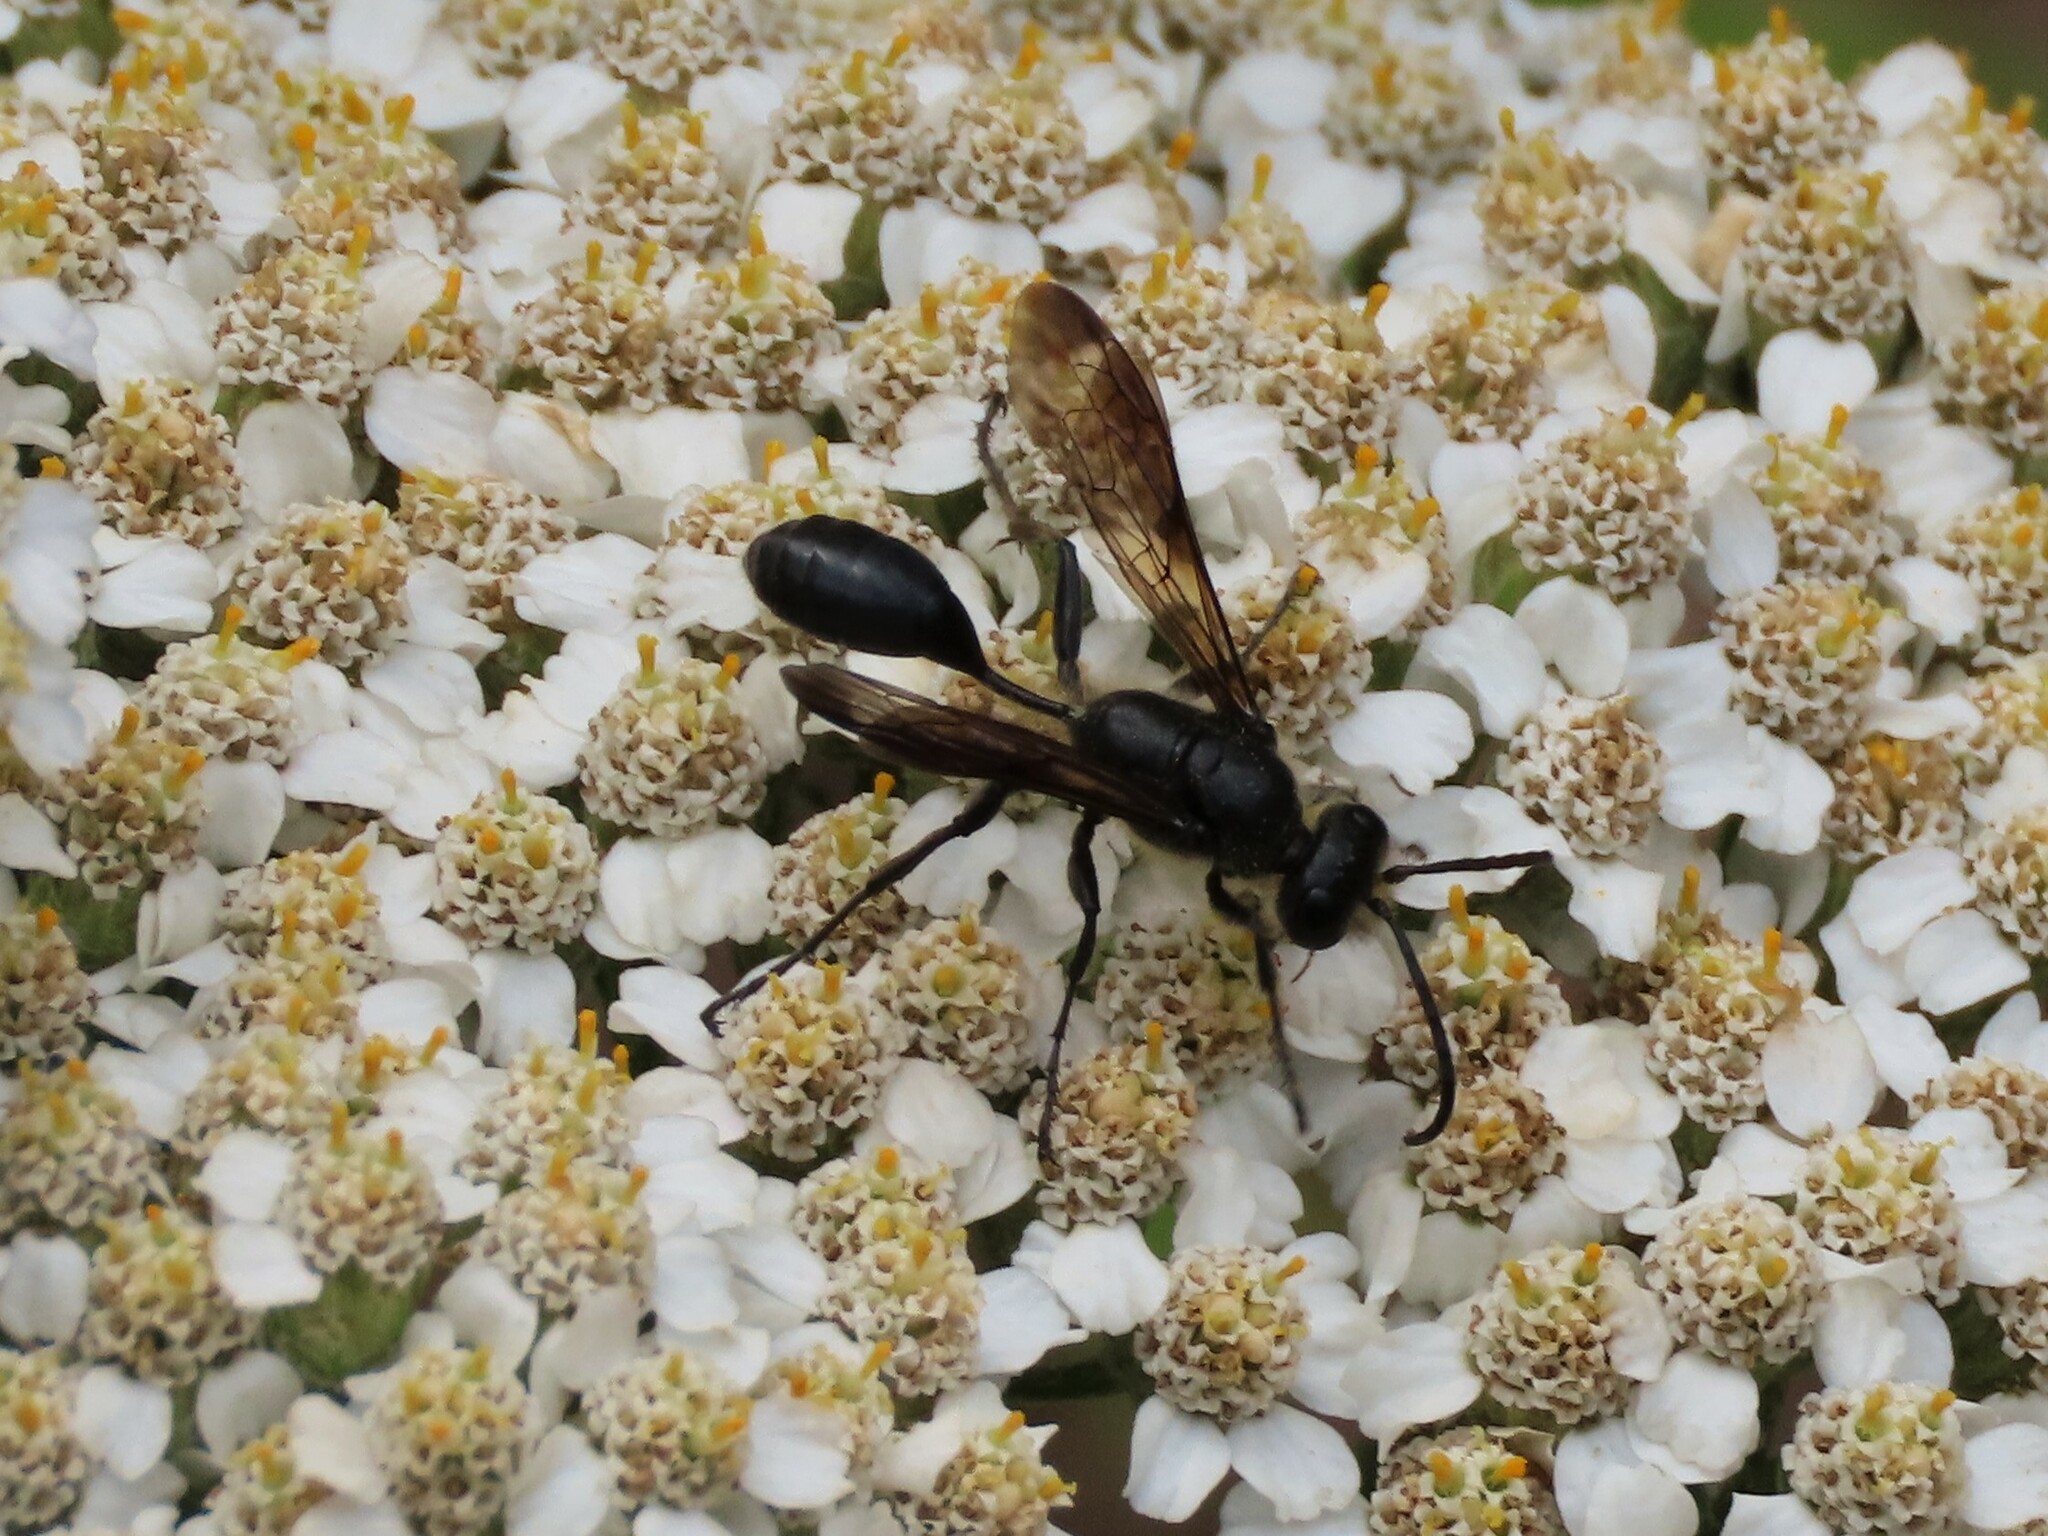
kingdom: Animalia
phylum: Arthropoda
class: Insecta
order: Hymenoptera
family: Sphecidae
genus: Isodontia
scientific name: Isodontia mexicana
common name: Mud dauber
